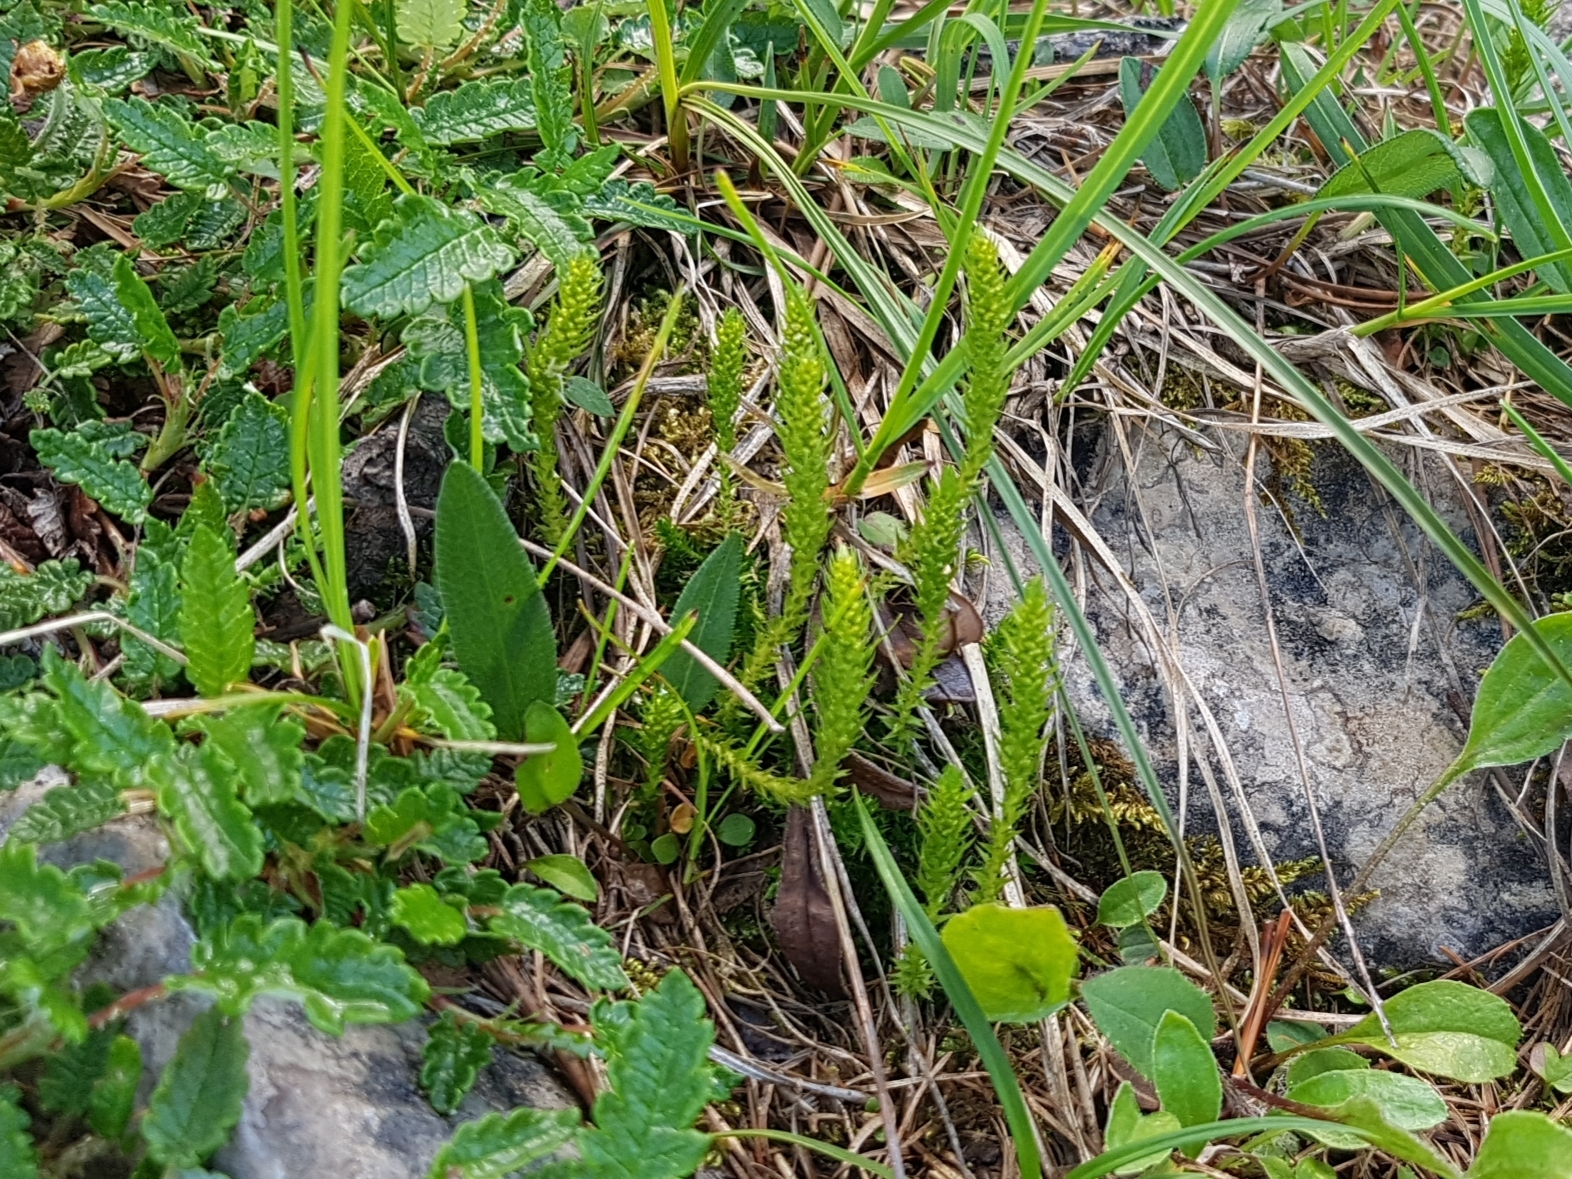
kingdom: Plantae
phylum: Tracheophyta
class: Lycopodiopsida
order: Selaginellales
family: Selaginellaceae
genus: Selaginella
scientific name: Selaginella selaginoides
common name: Prickly mountain-moss
